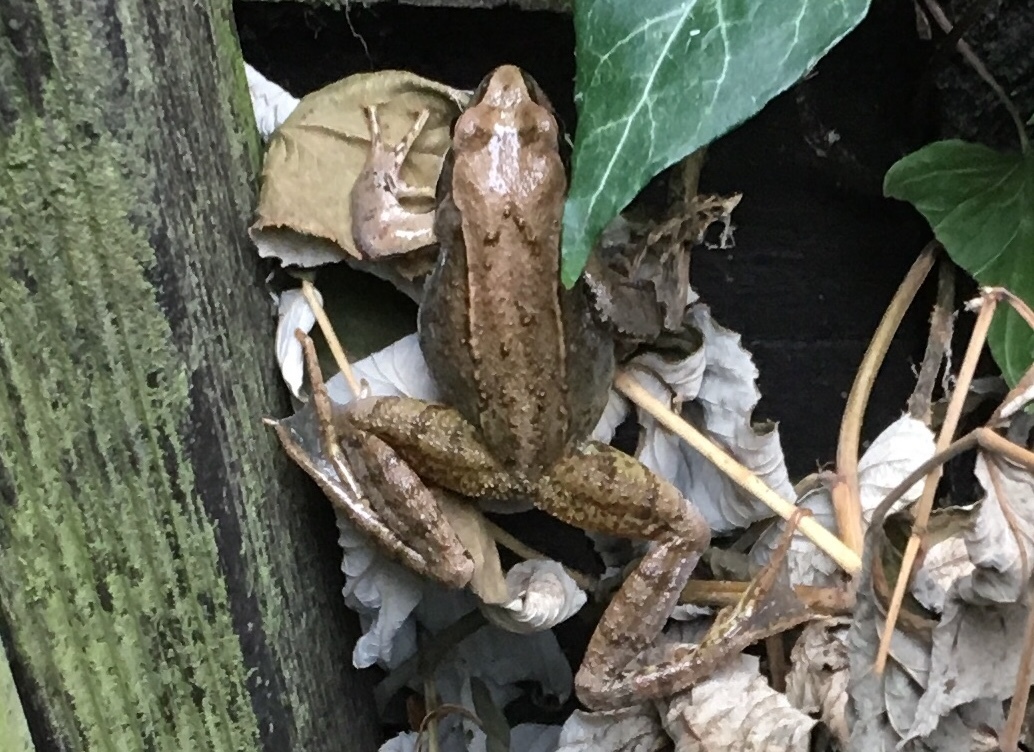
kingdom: Animalia
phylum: Chordata
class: Amphibia
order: Anura
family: Ranidae
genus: Rana
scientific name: Rana temporaria
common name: Common frog
